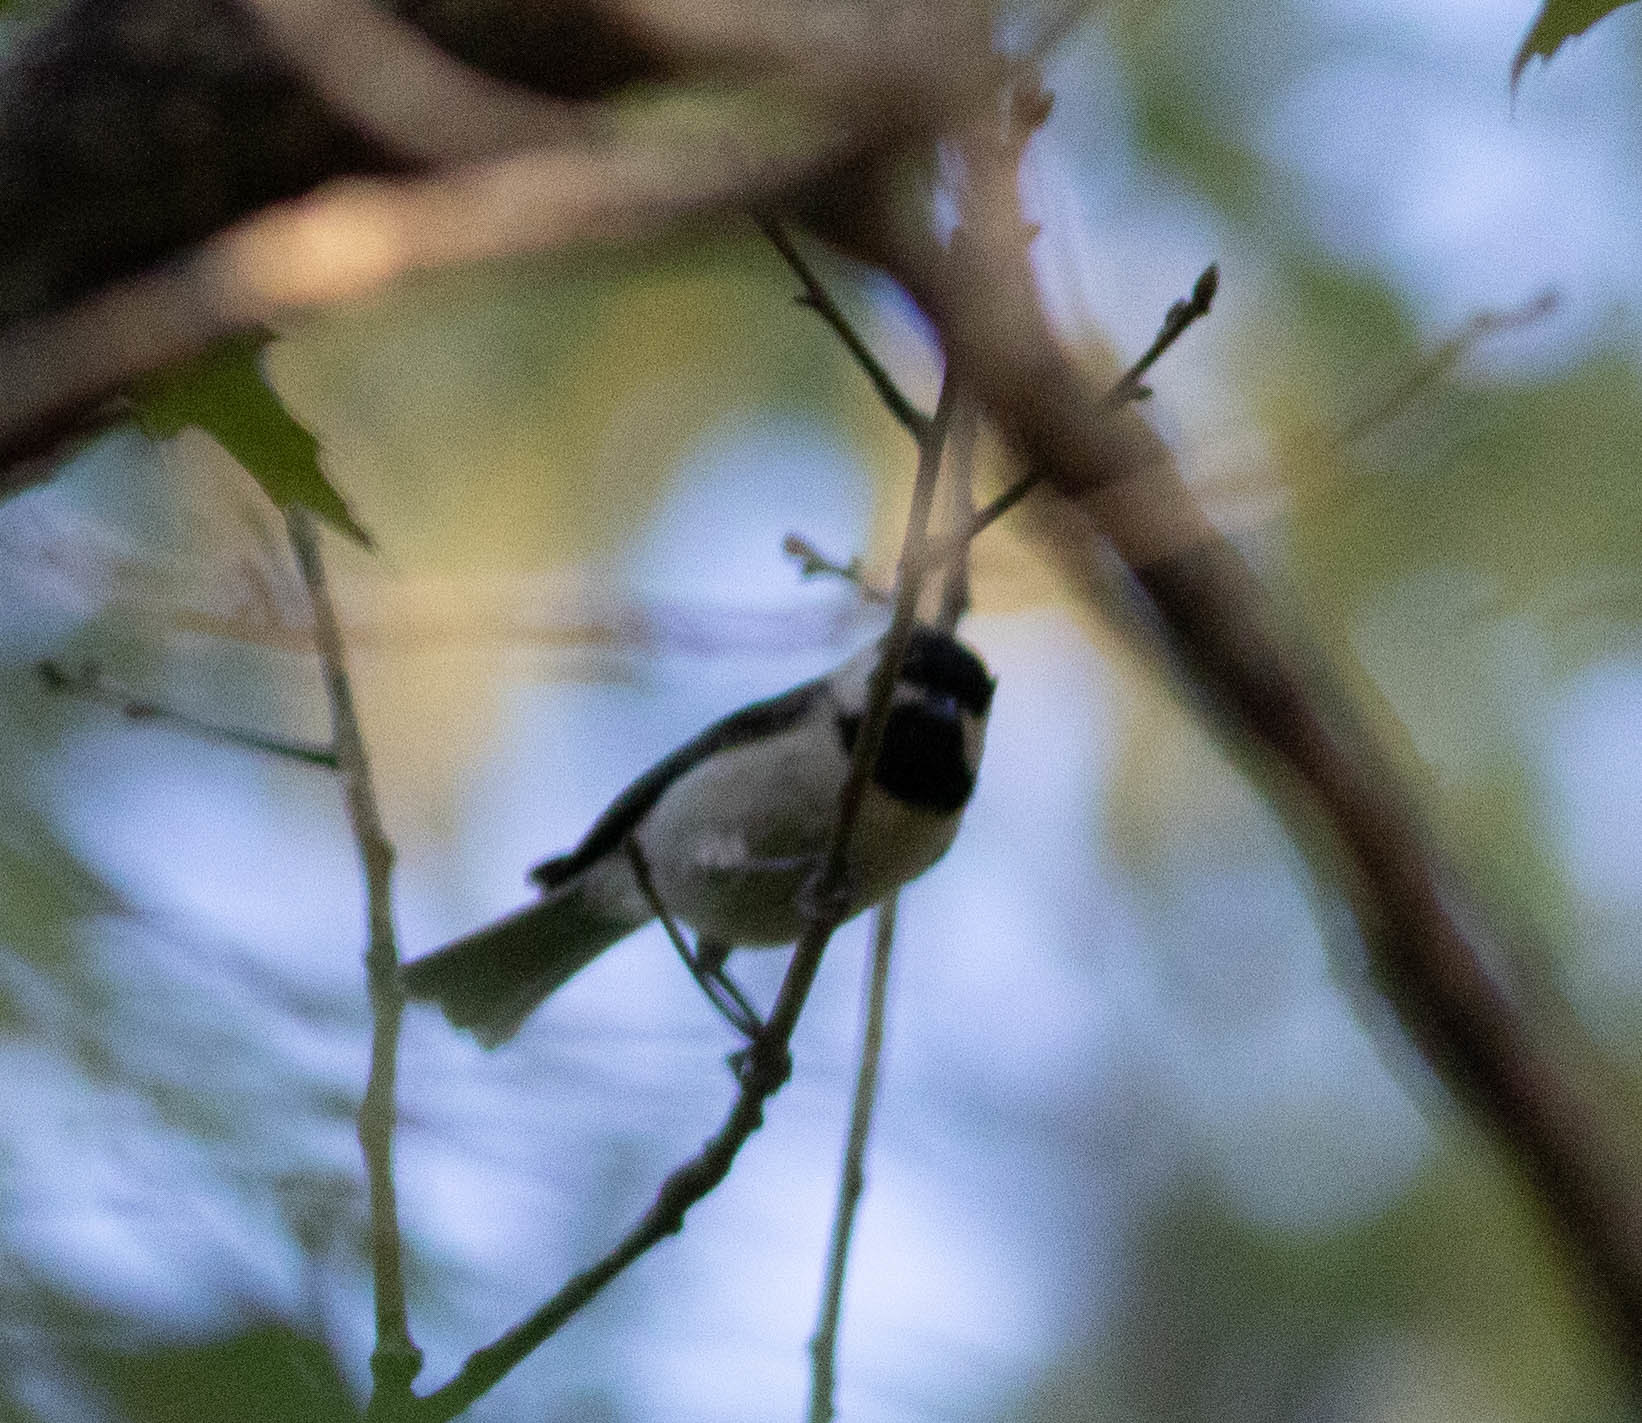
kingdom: Animalia
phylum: Chordata
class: Aves
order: Passeriformes
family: Paridae
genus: Poecile
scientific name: Poecile carolinensis
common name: Carolina chickadee
